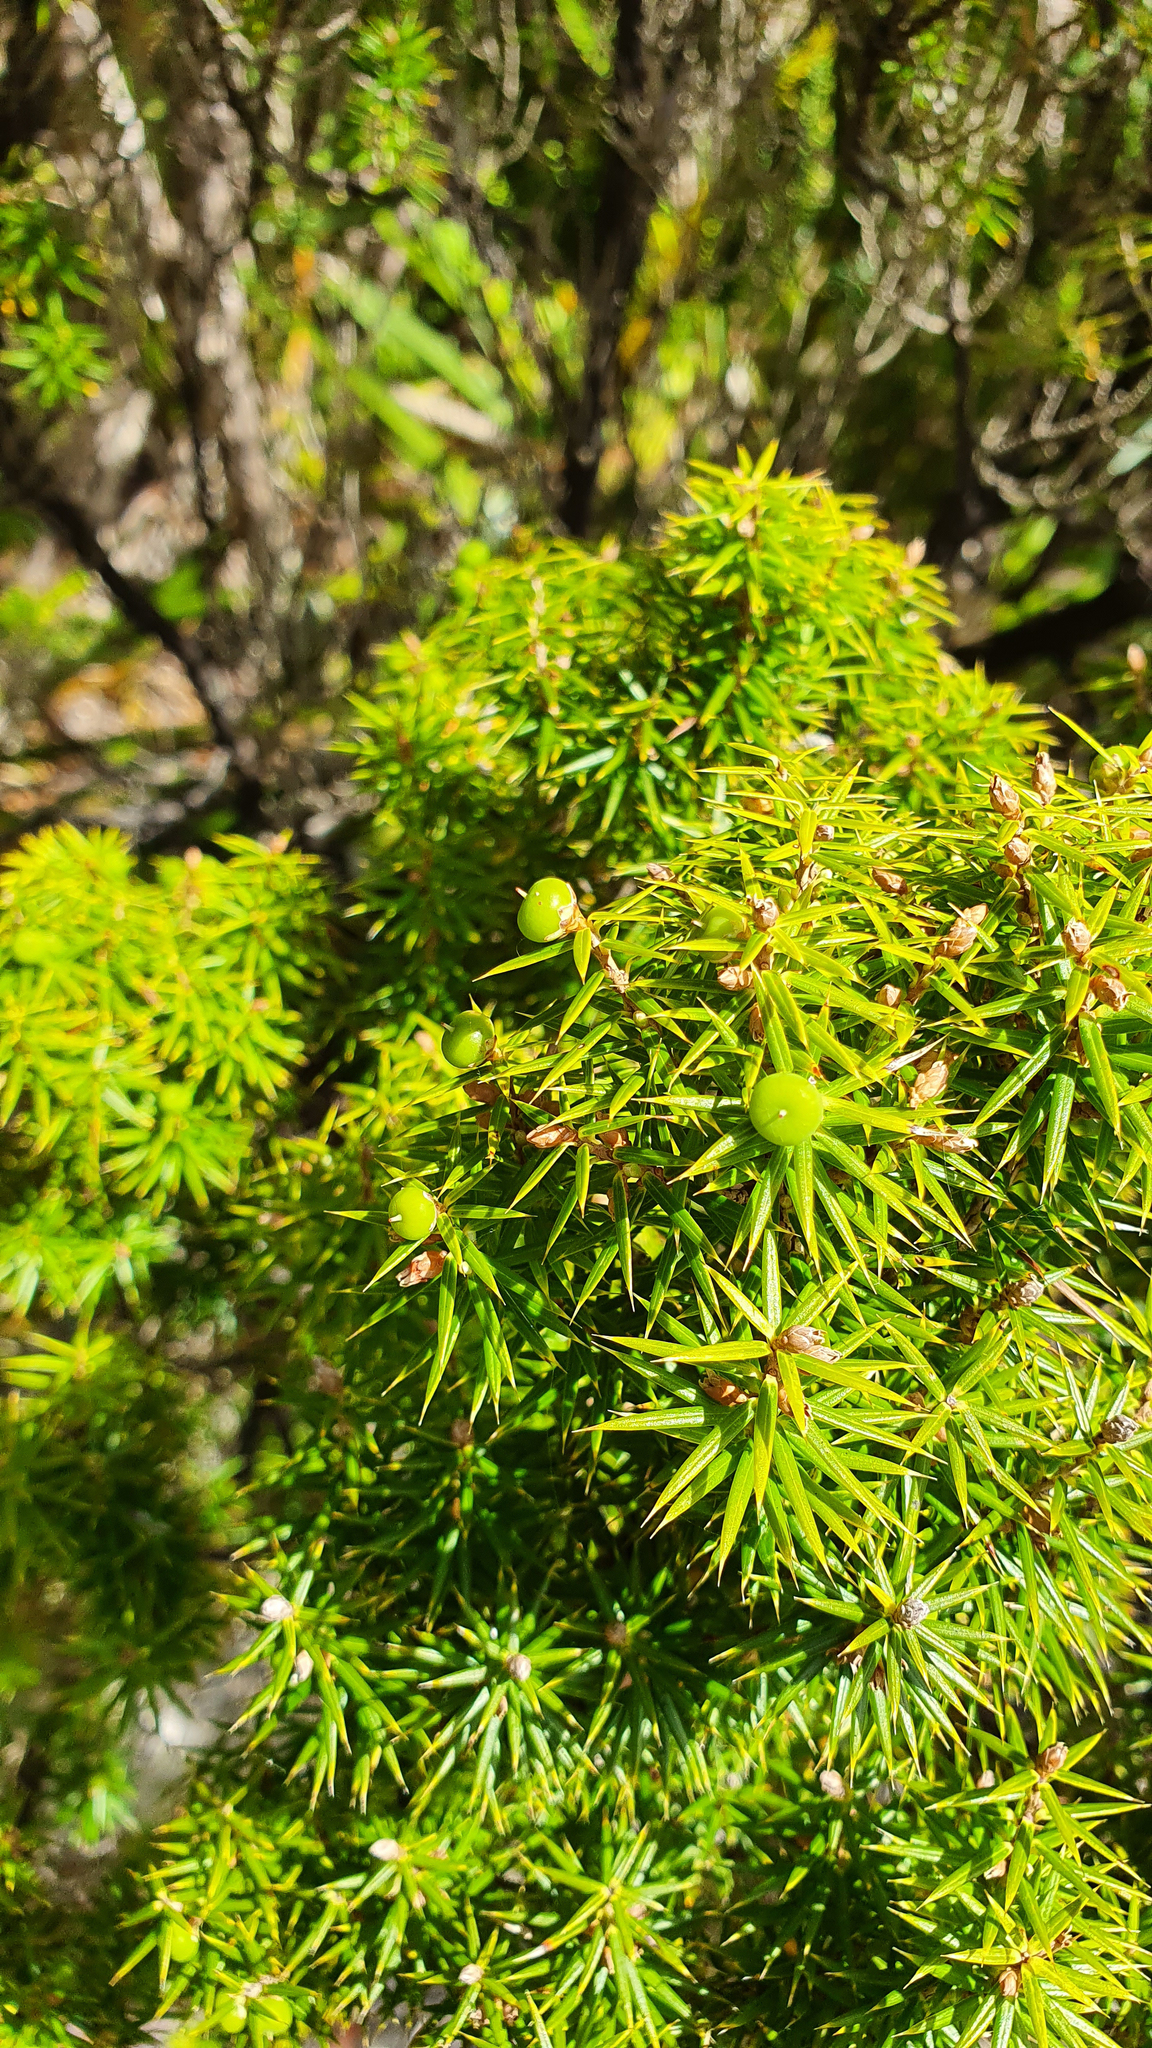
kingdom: Plantae
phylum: Tracheophyta
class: Magnoliopsida
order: Ericales
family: Ericaceae
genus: Leptecophylla
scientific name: Leptecophylla juniperina
